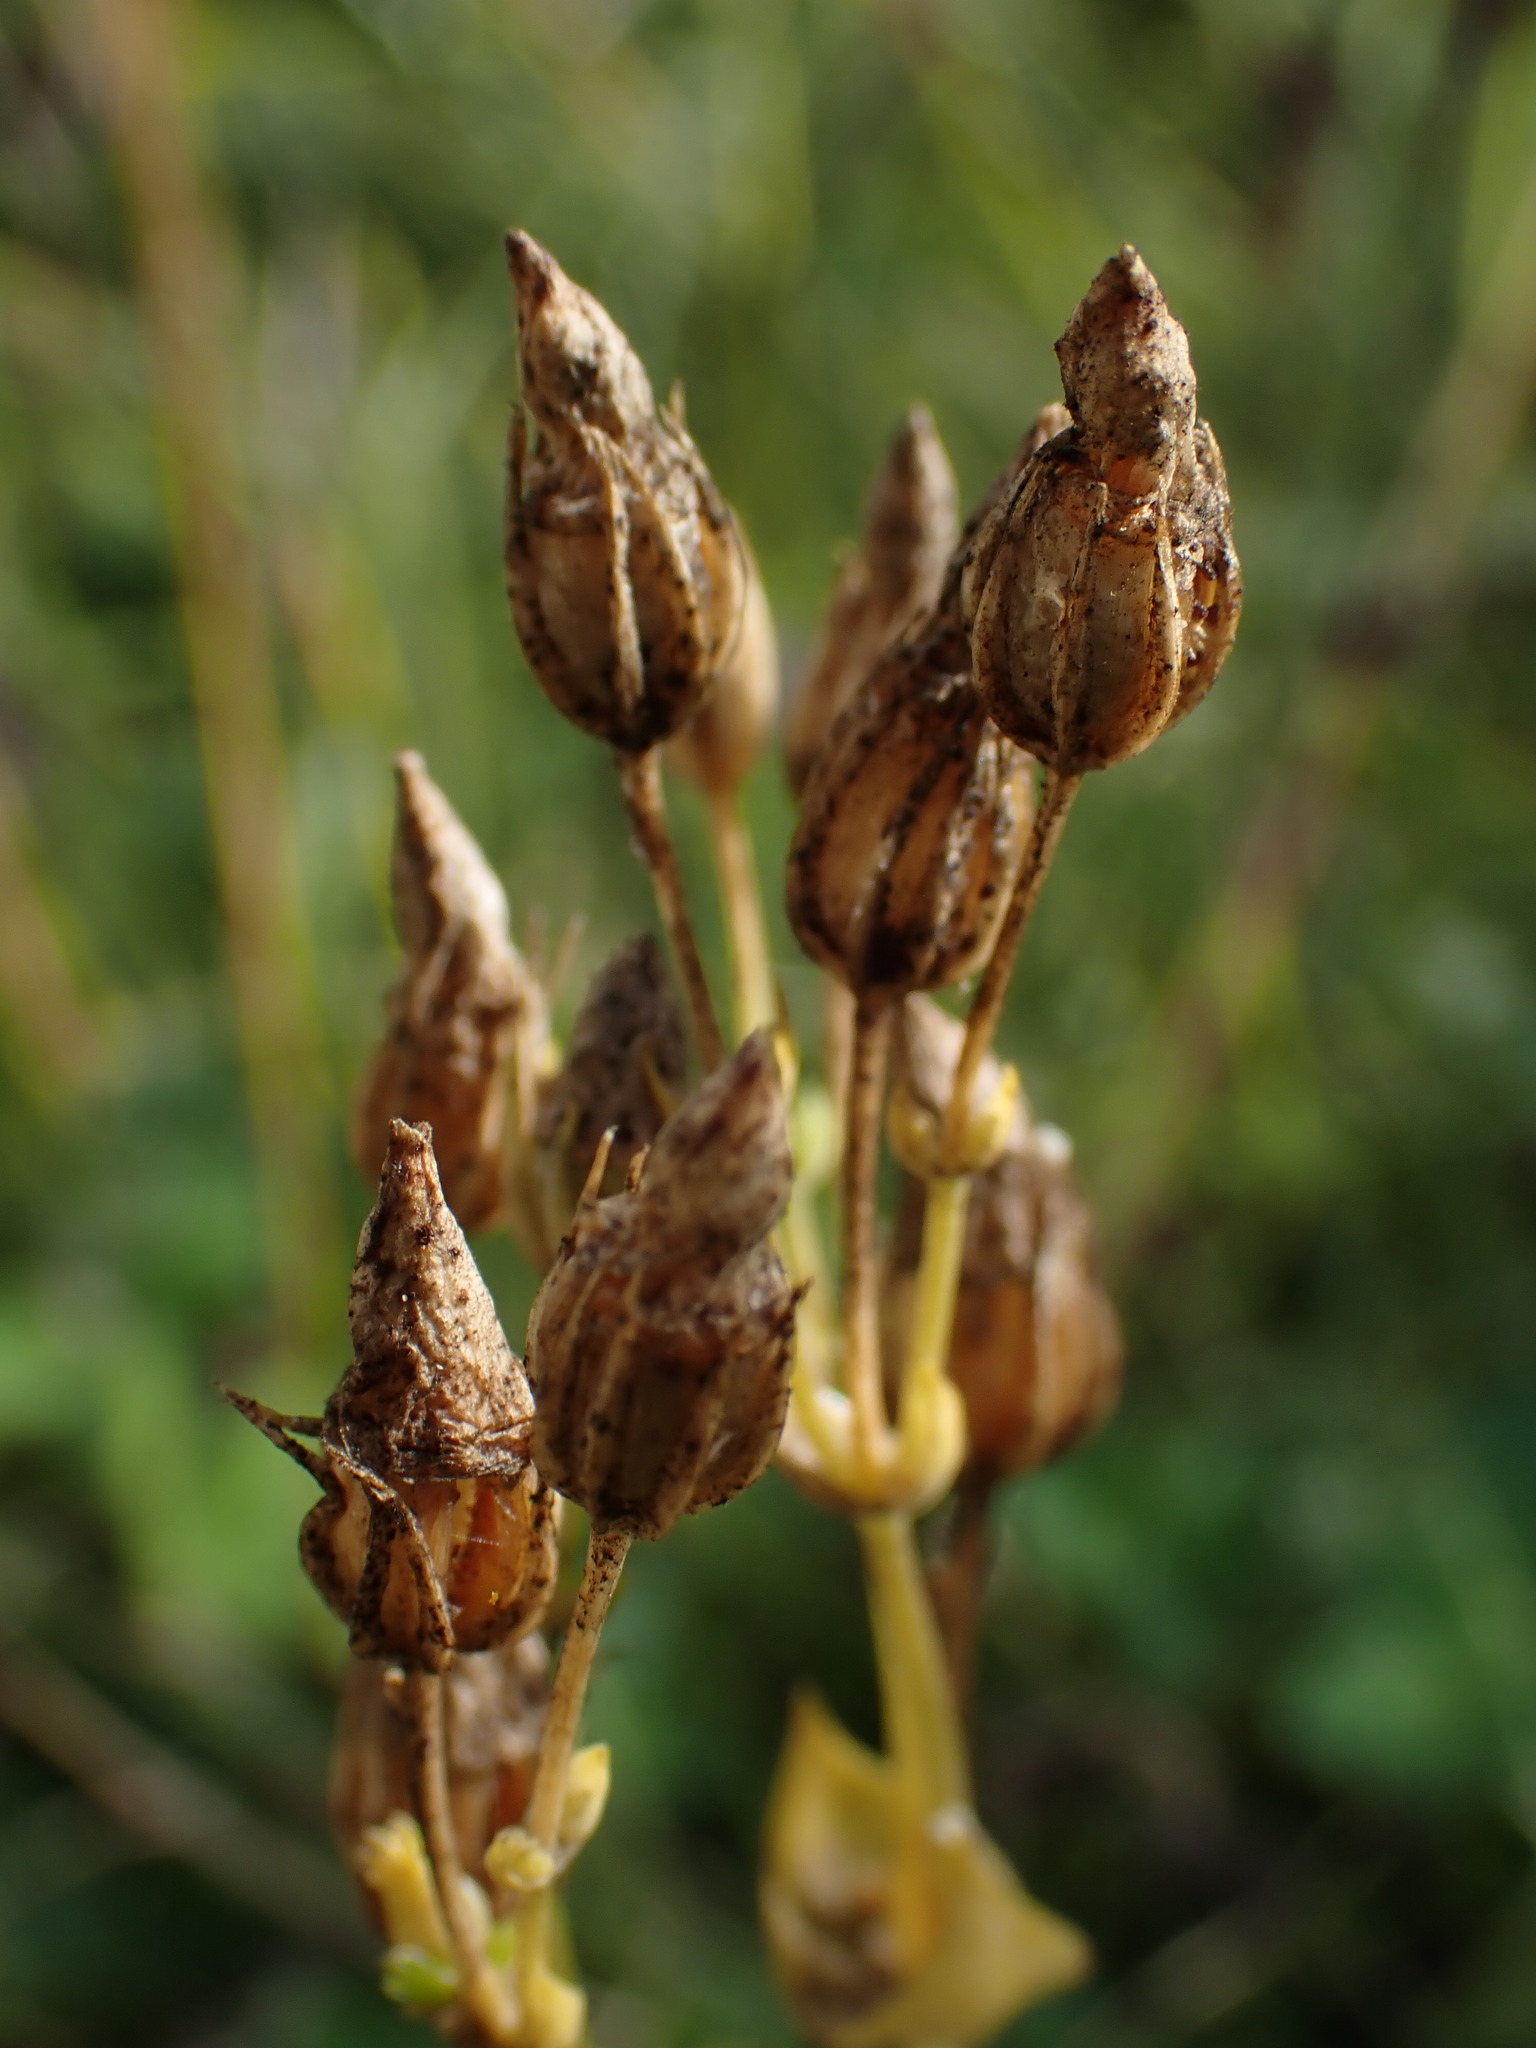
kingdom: Plantae
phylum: Tracheophyta
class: Magnoliopsida
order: Gentianales
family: Gentianaceae
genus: Blackstonia
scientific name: Blackstonia perfoliata
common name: Yellow-wort
